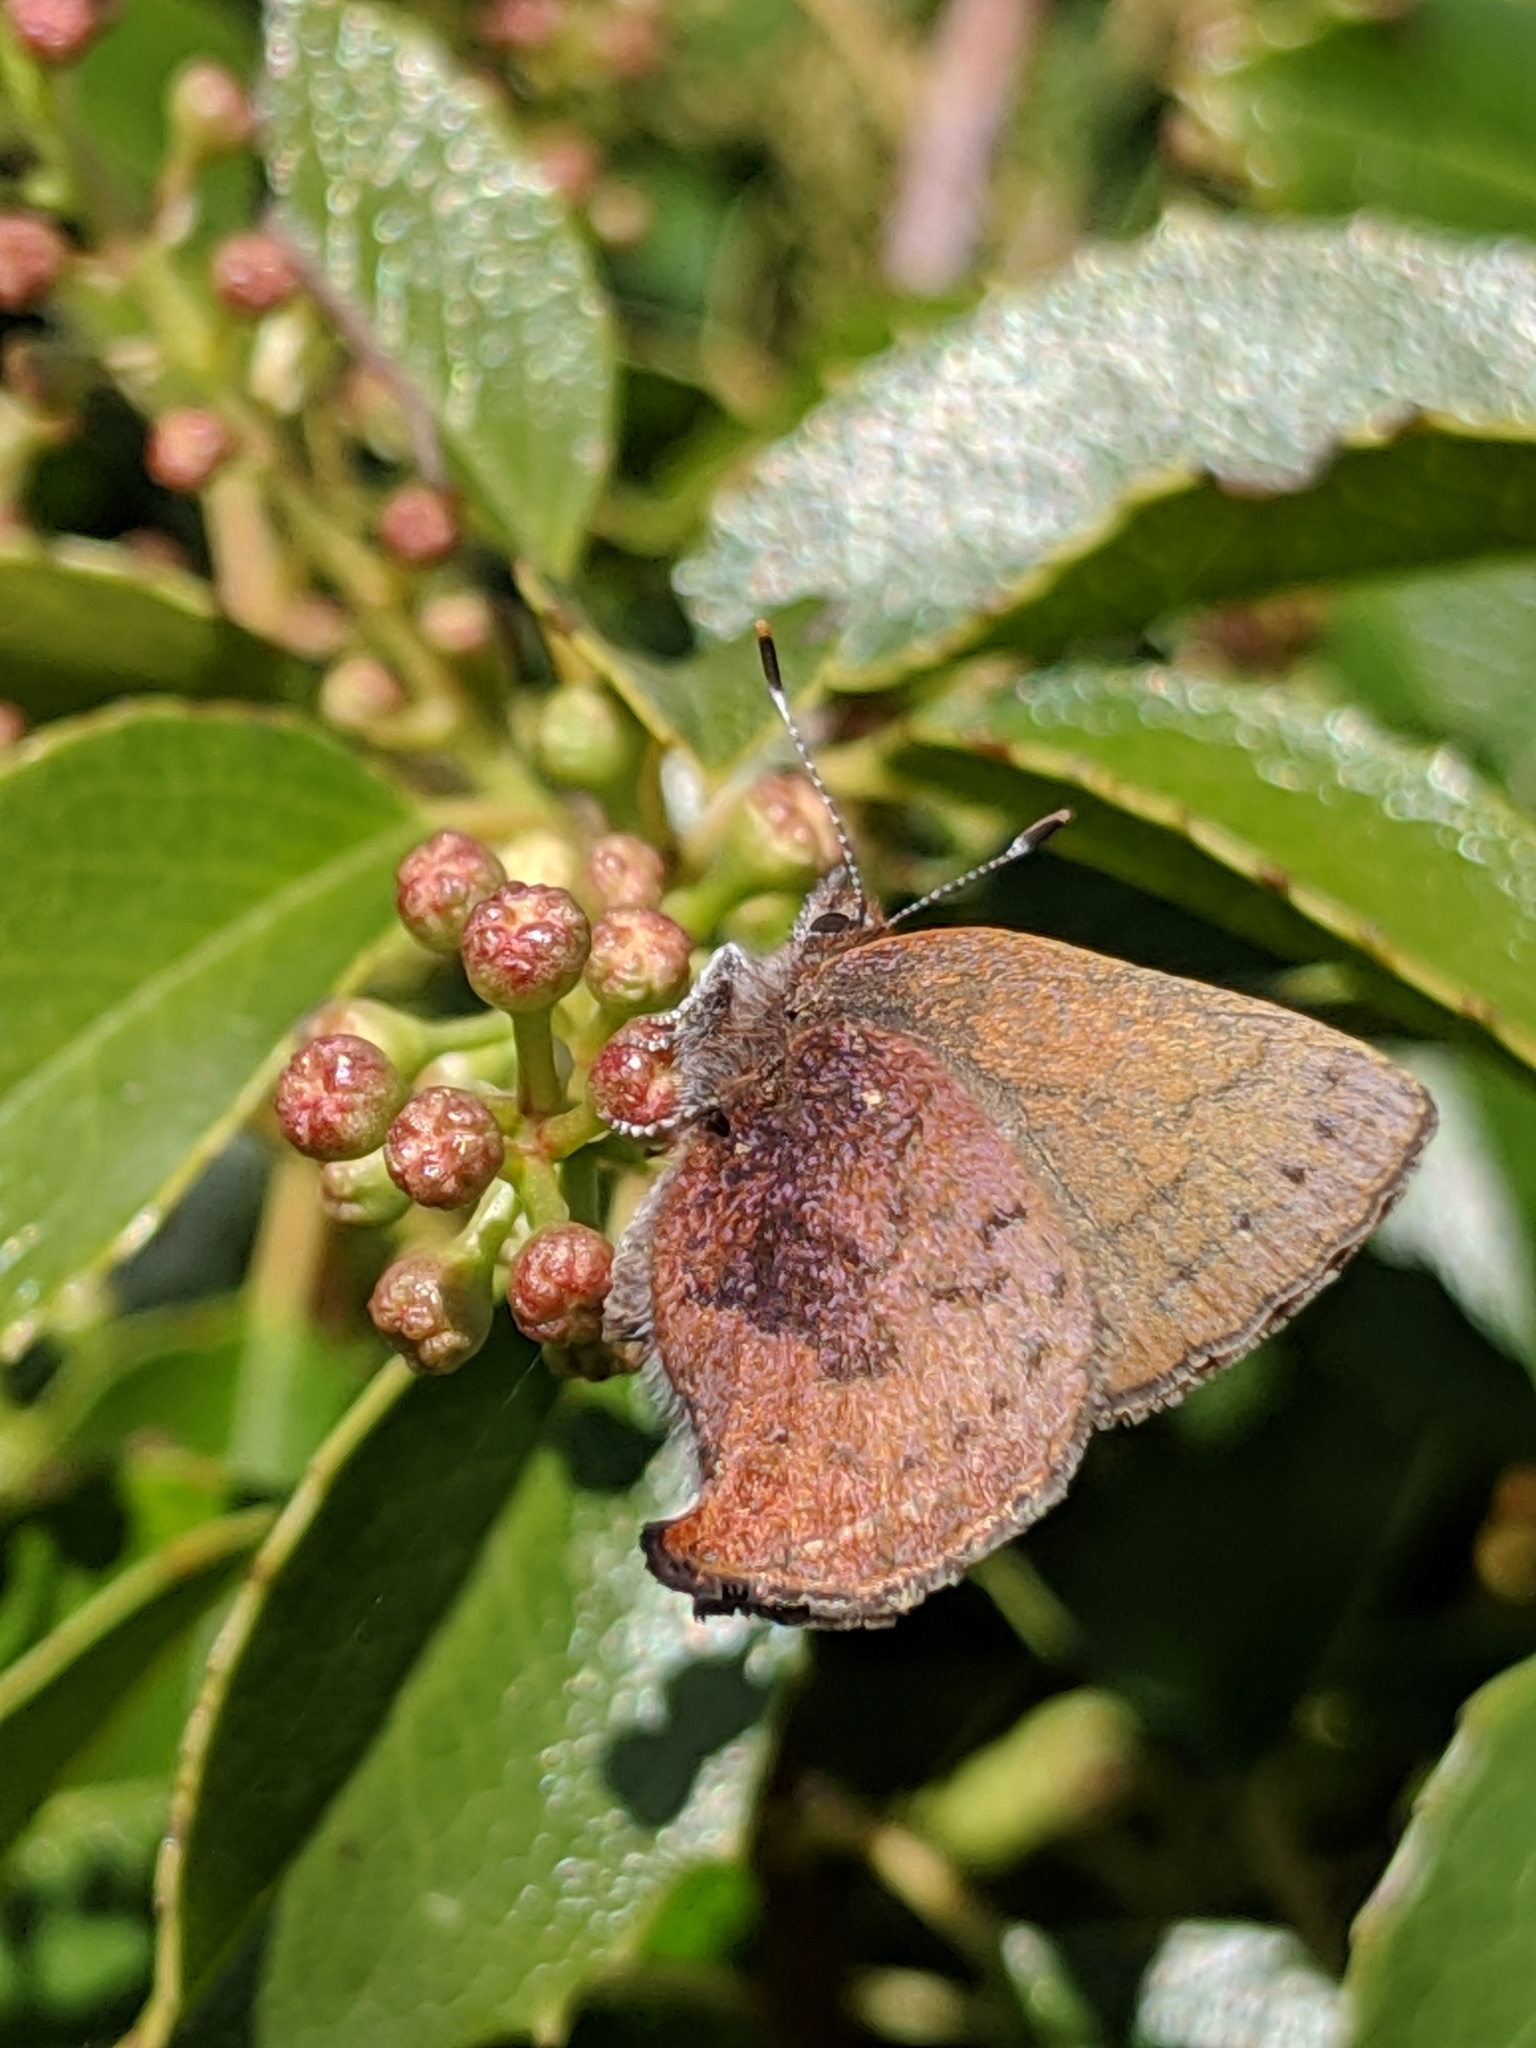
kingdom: Animalia
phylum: Arthropoda
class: Insecta
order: Lepidoptera
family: Lycaenidae
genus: Incisalia
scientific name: Incisalia irioides
